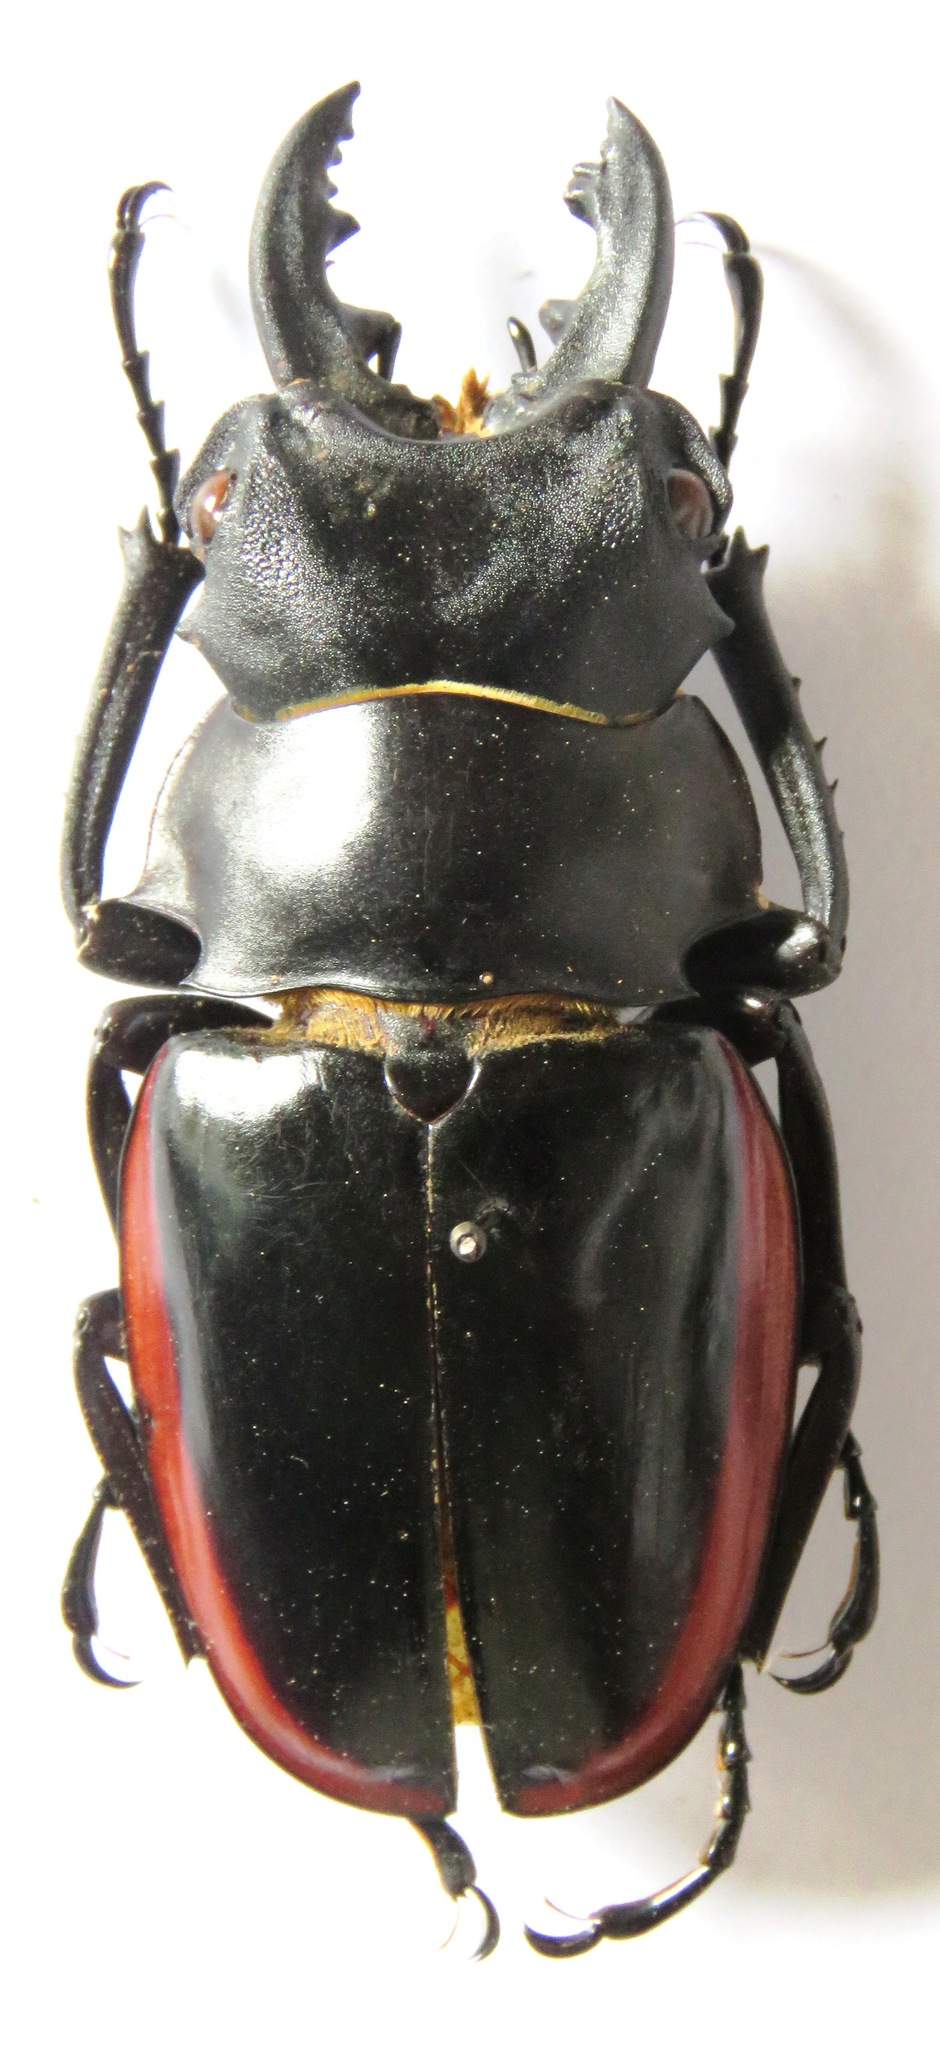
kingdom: Animalia
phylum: Arthropoda
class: Insecta
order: Coleoptera
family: Lucanidae
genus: Odontolabis
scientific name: Odontolabis cuvera
